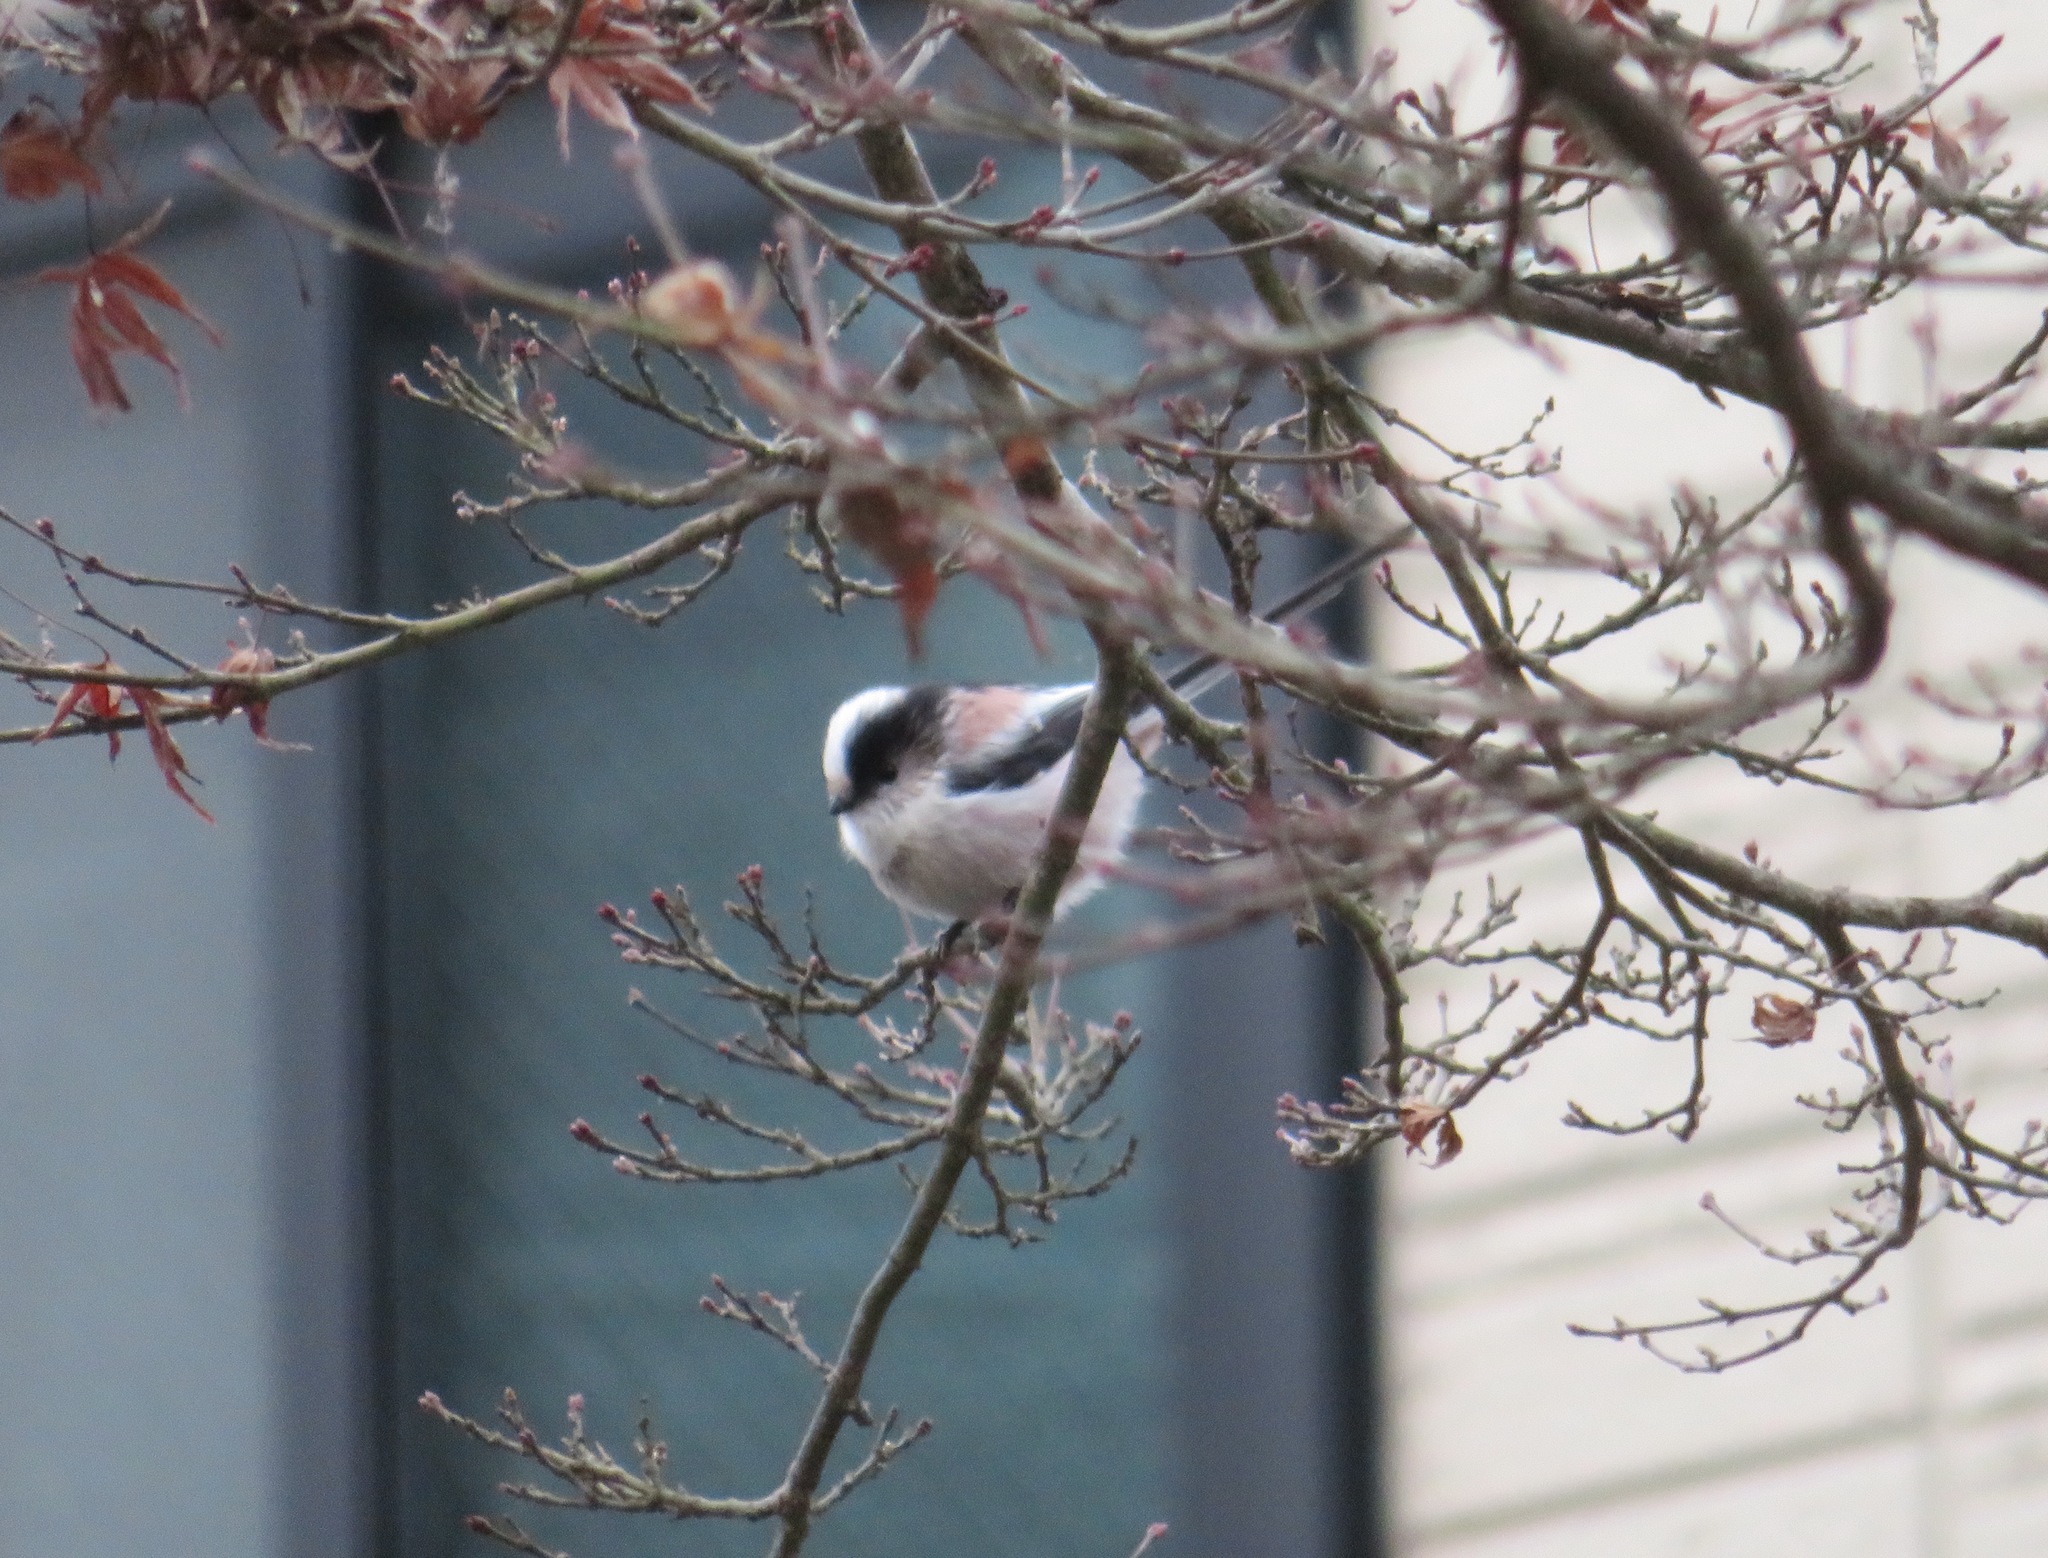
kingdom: Animalia
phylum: Chordata
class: Aves
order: Passeriformes
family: Aegithalidae
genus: Aegithalos
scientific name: Aegithalos caudatus
